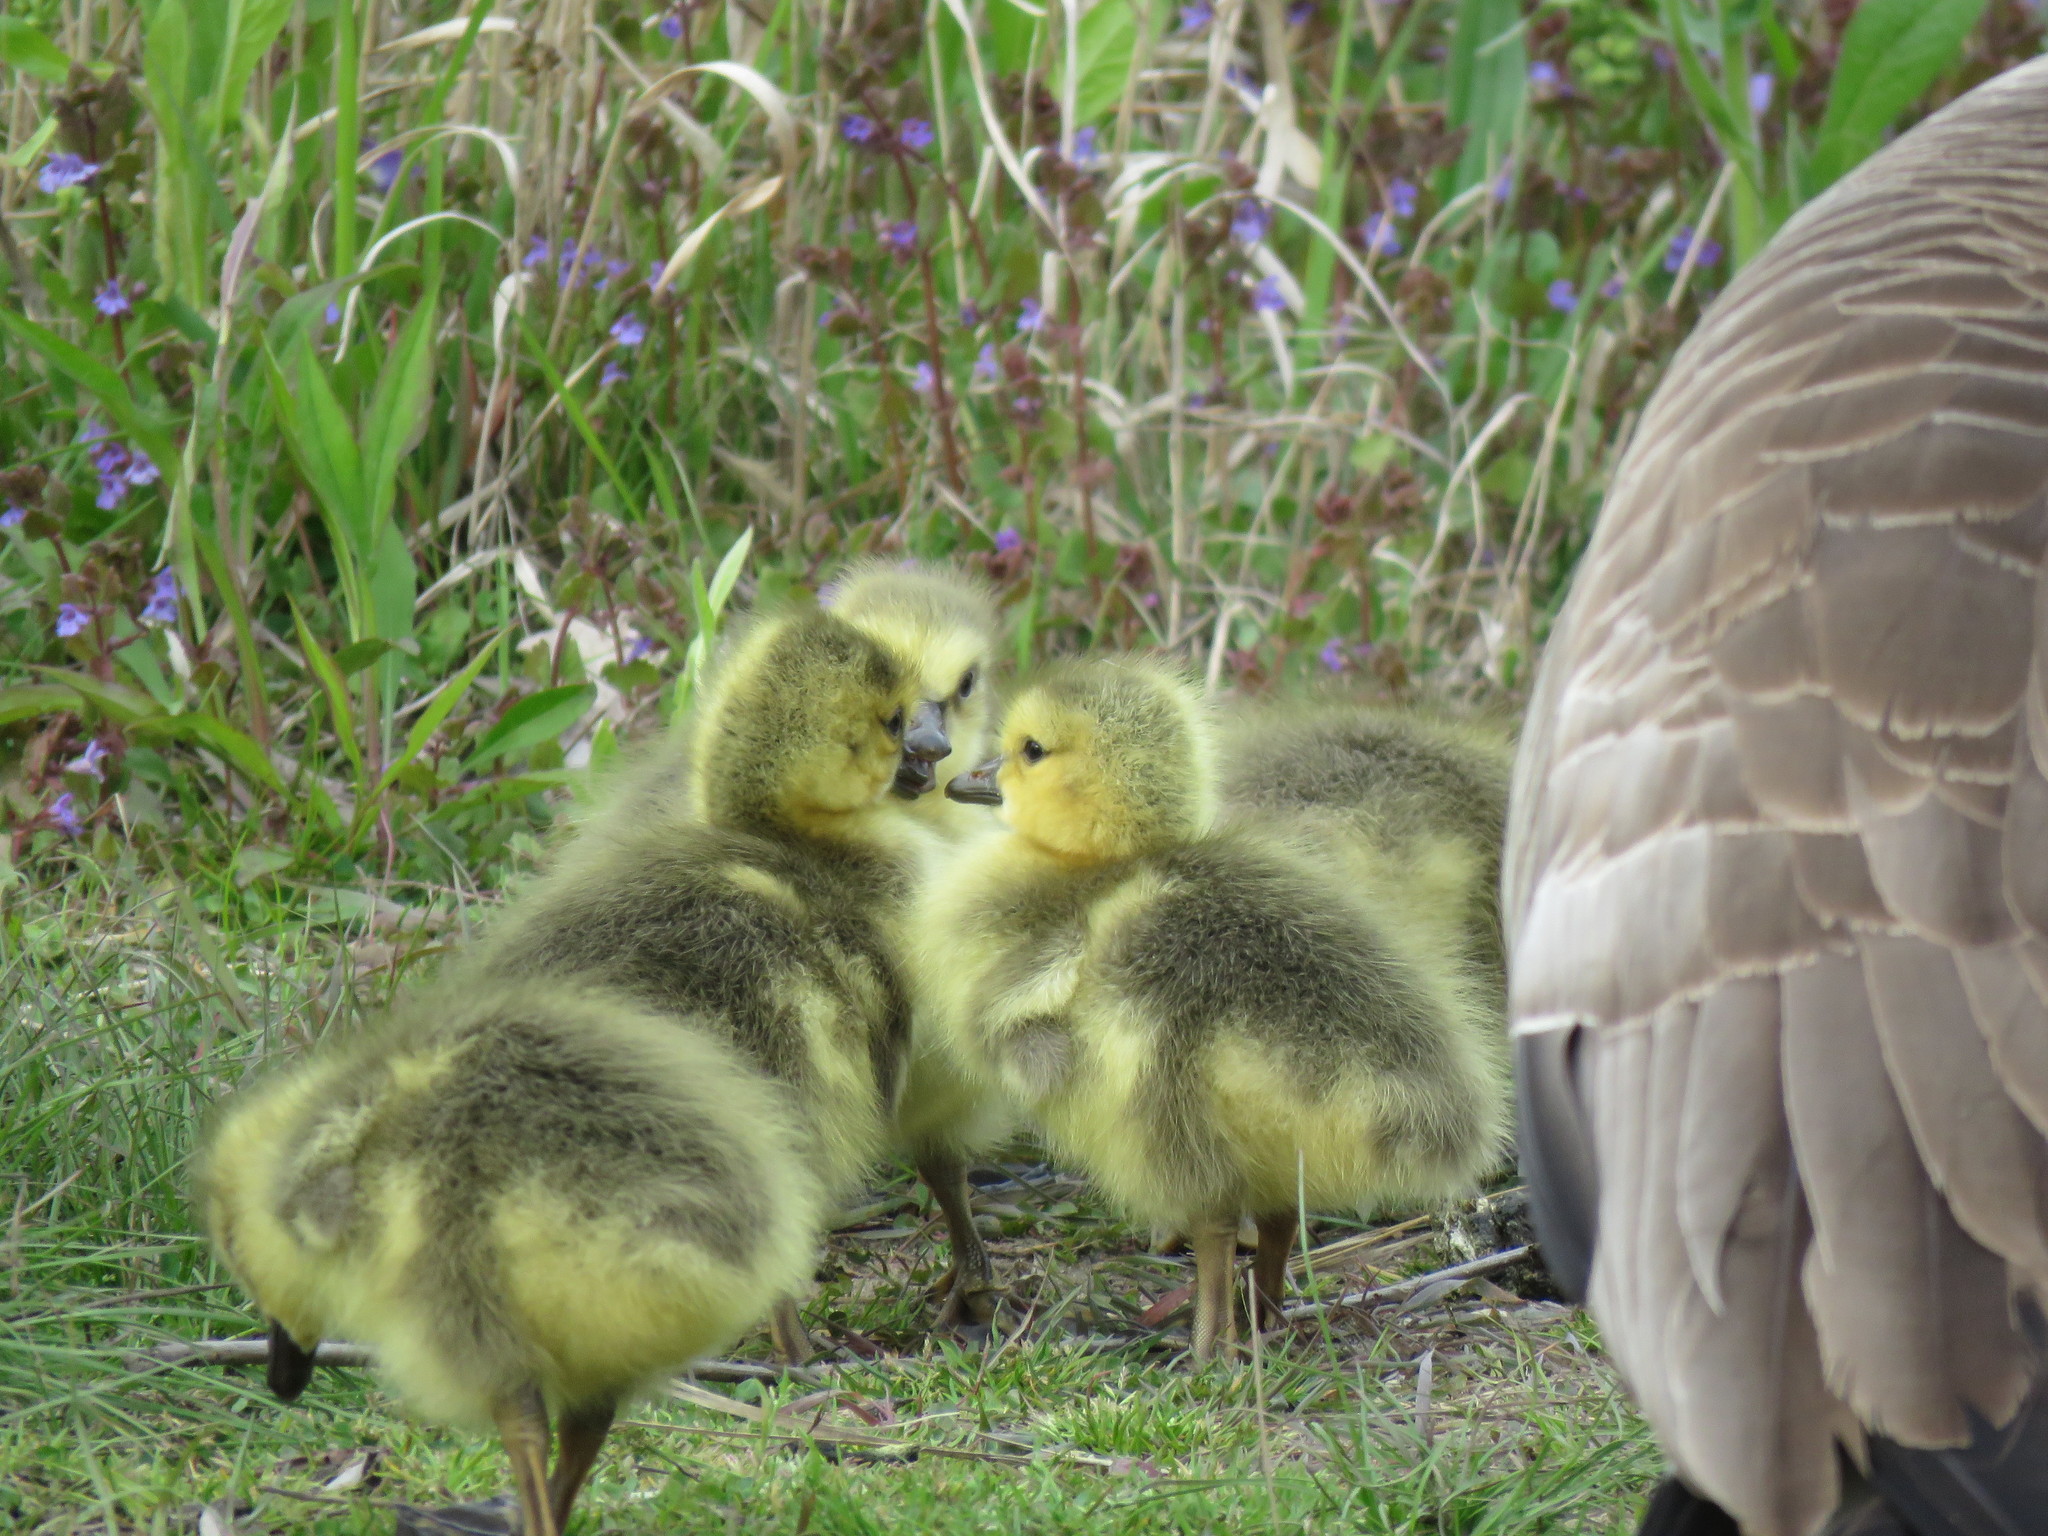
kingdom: Animalia
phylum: Chordata
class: Aves
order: Anseriformes
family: Anatidae
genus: Branta
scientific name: Branta canadensis
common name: Canada goose
